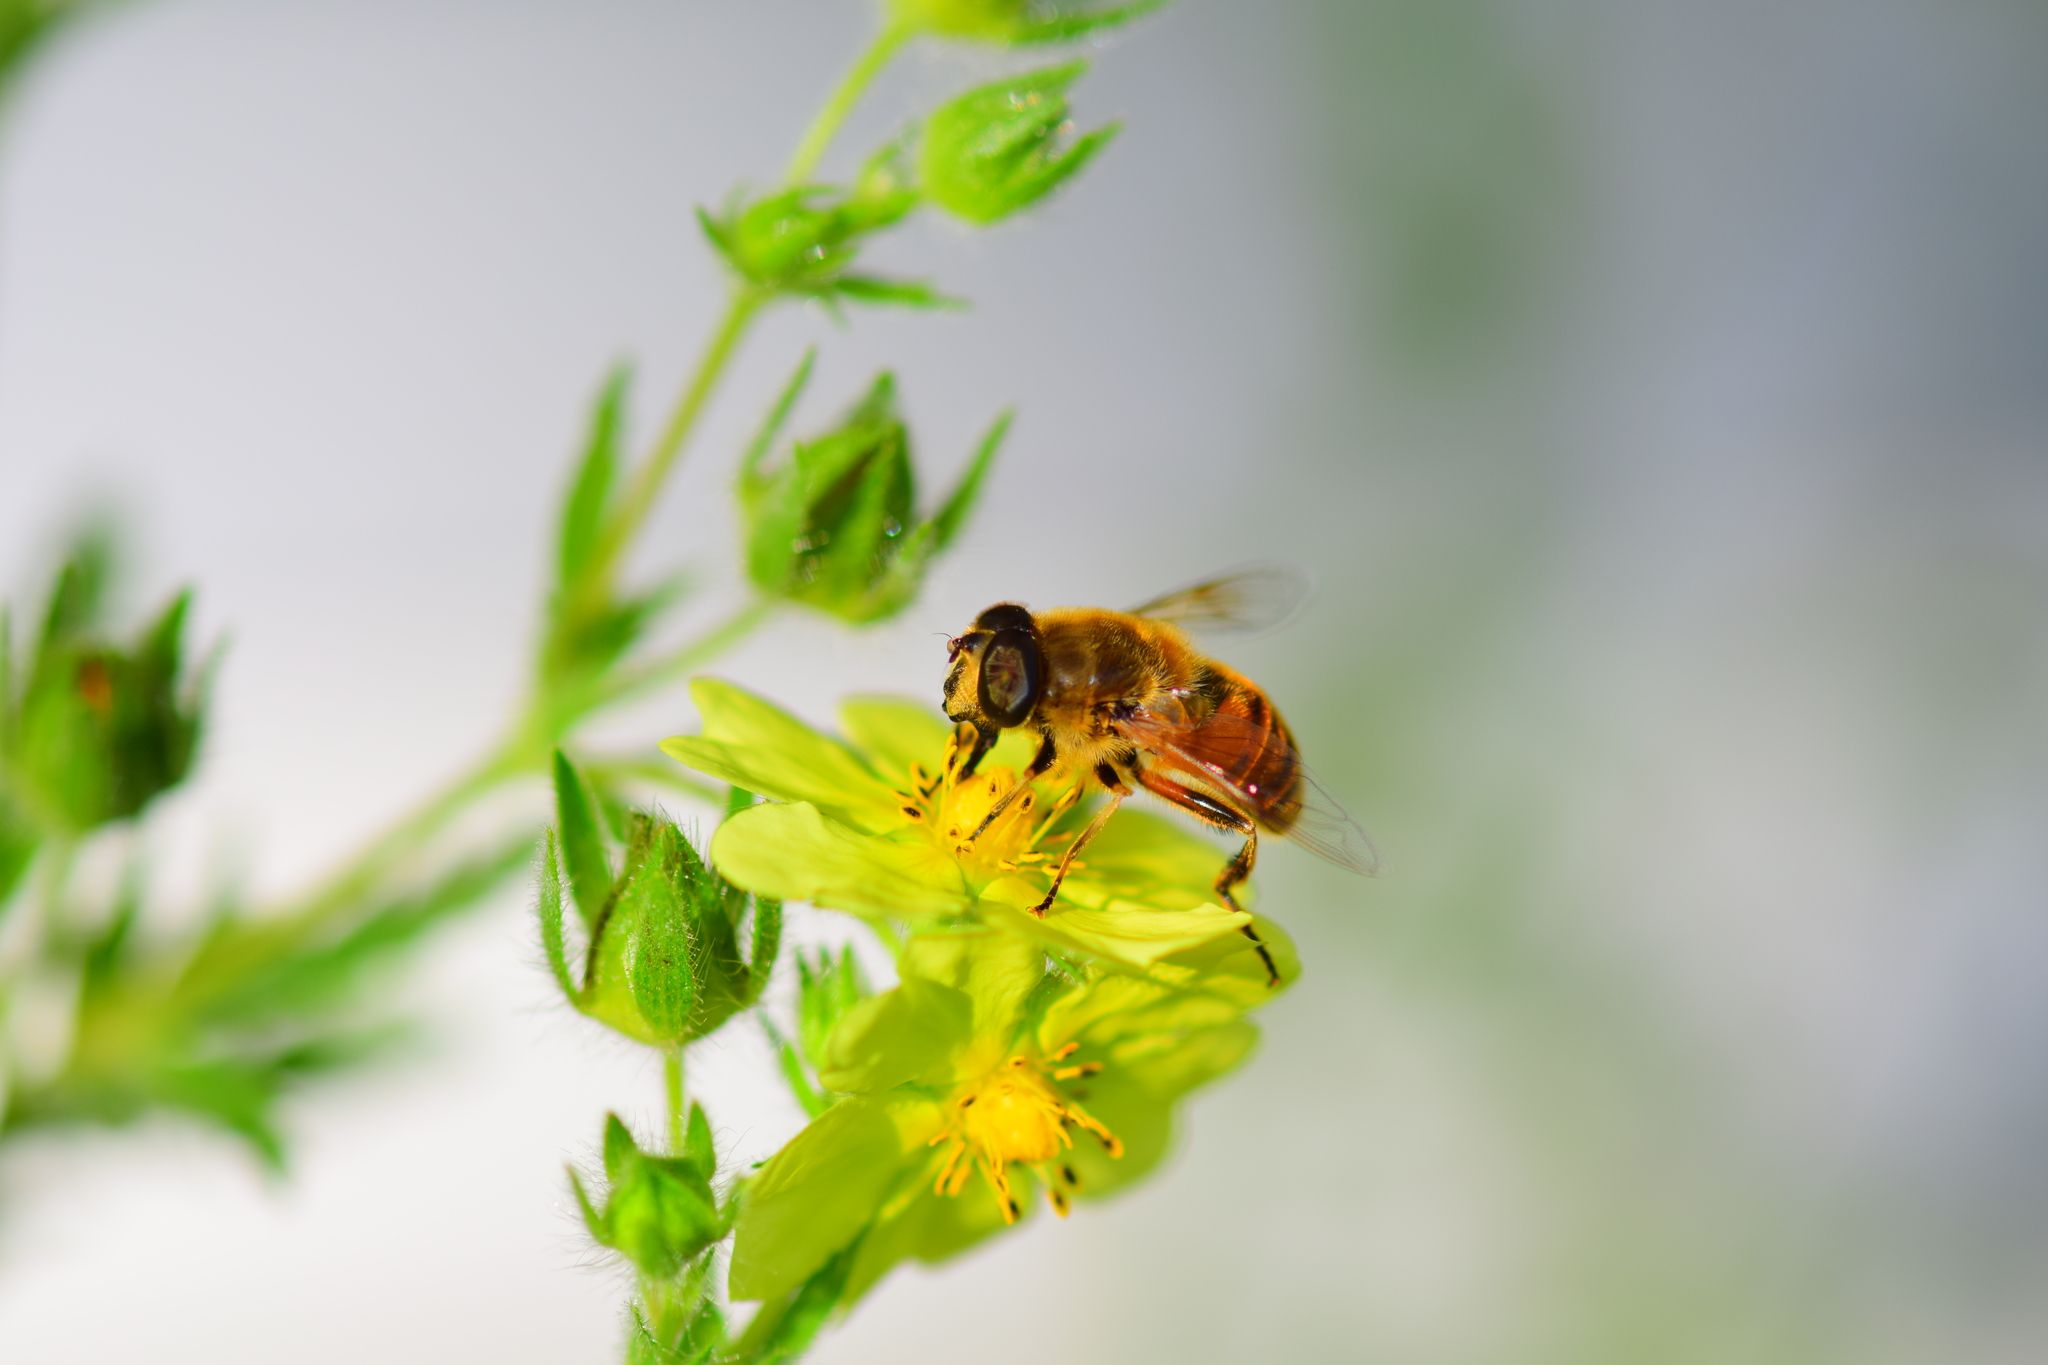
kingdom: Animalia
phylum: Arthropoda
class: Insecta
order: Diptera
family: Syrphidae
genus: Eristalis
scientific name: Eristalis tenax
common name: Drone fly
